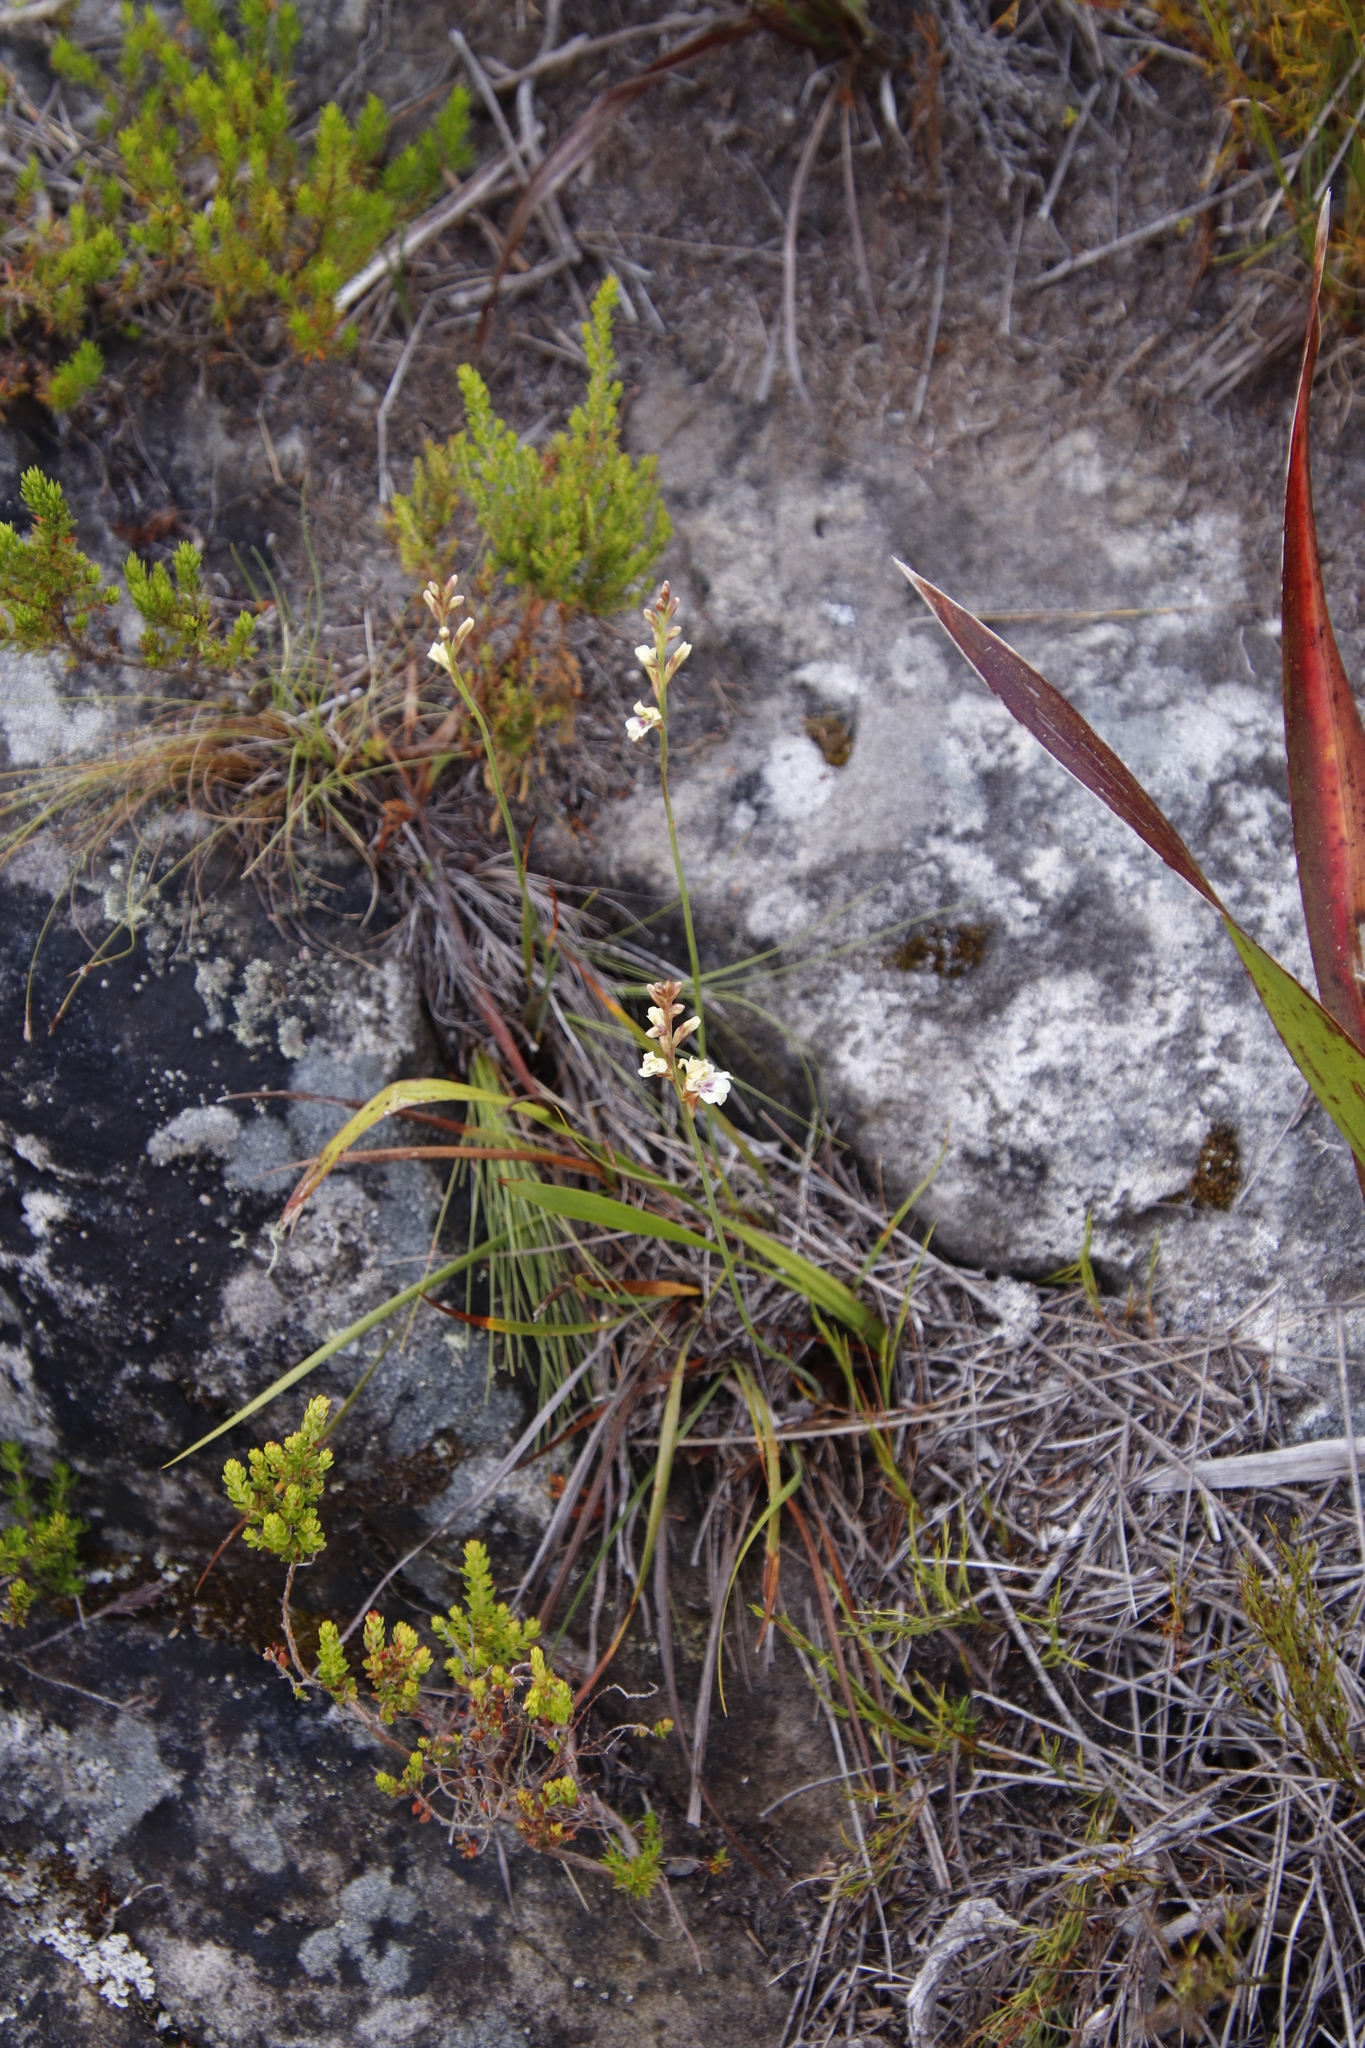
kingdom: Plantae
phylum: Tracheophyta
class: Liliopsida
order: Asparagales
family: Iridaceae
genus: Tritoniopsis
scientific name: Tritoniopsis unguicularis
